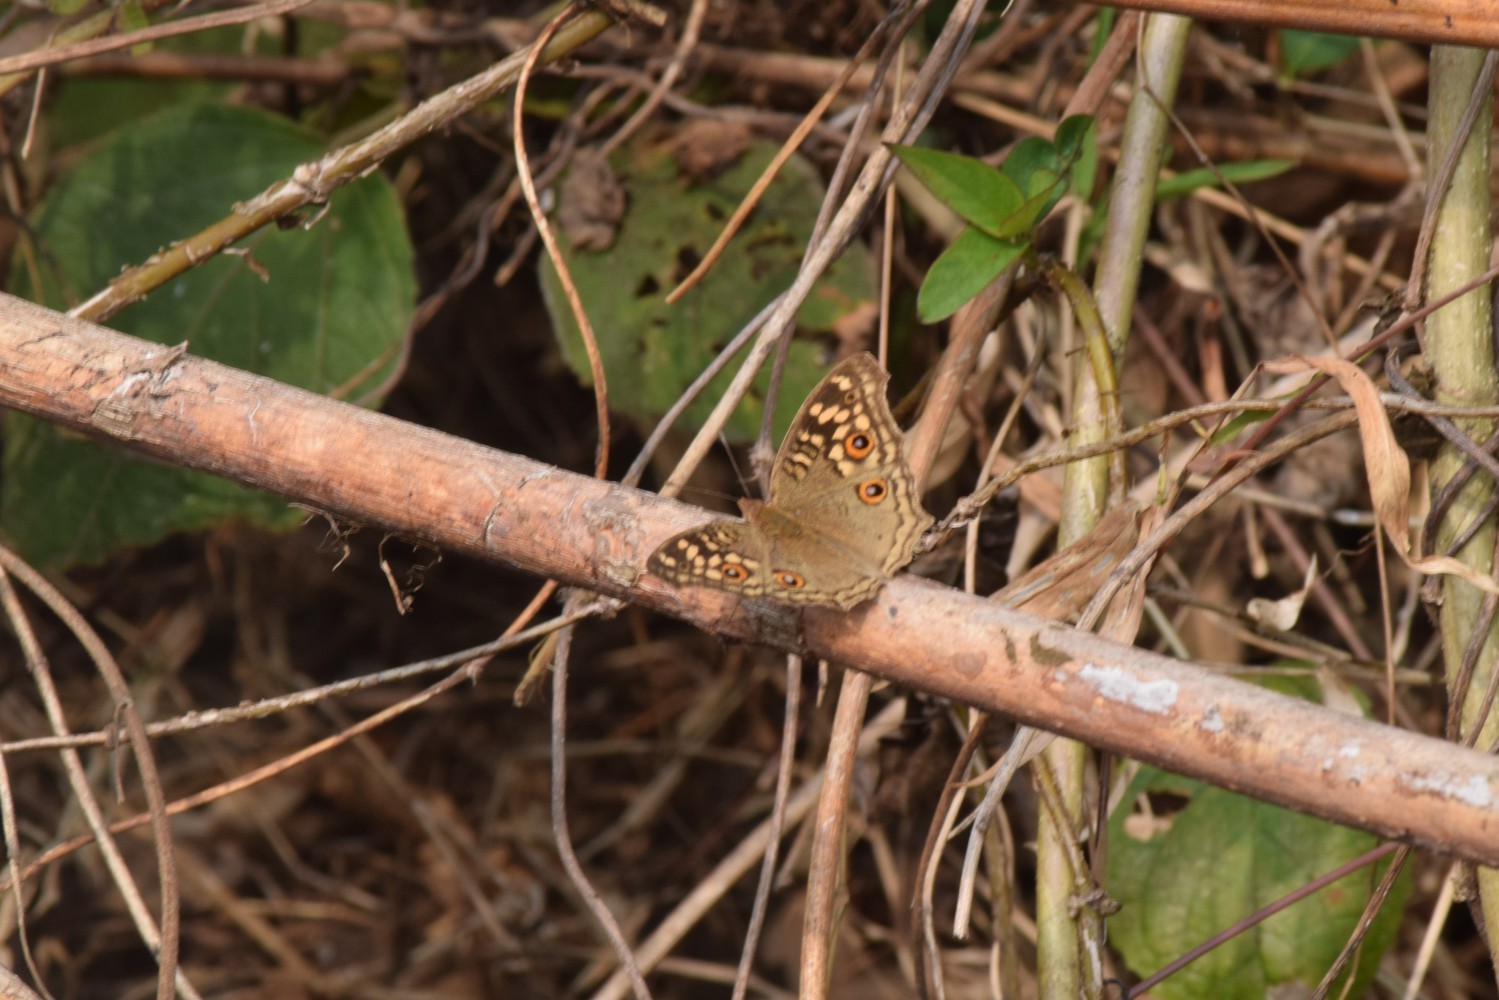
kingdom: Animalia
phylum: Arthropoda
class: Insecta
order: Lepidoptera
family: Nymphalidae
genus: Junonia
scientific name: Junonia lemonias
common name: Lemon pansy
